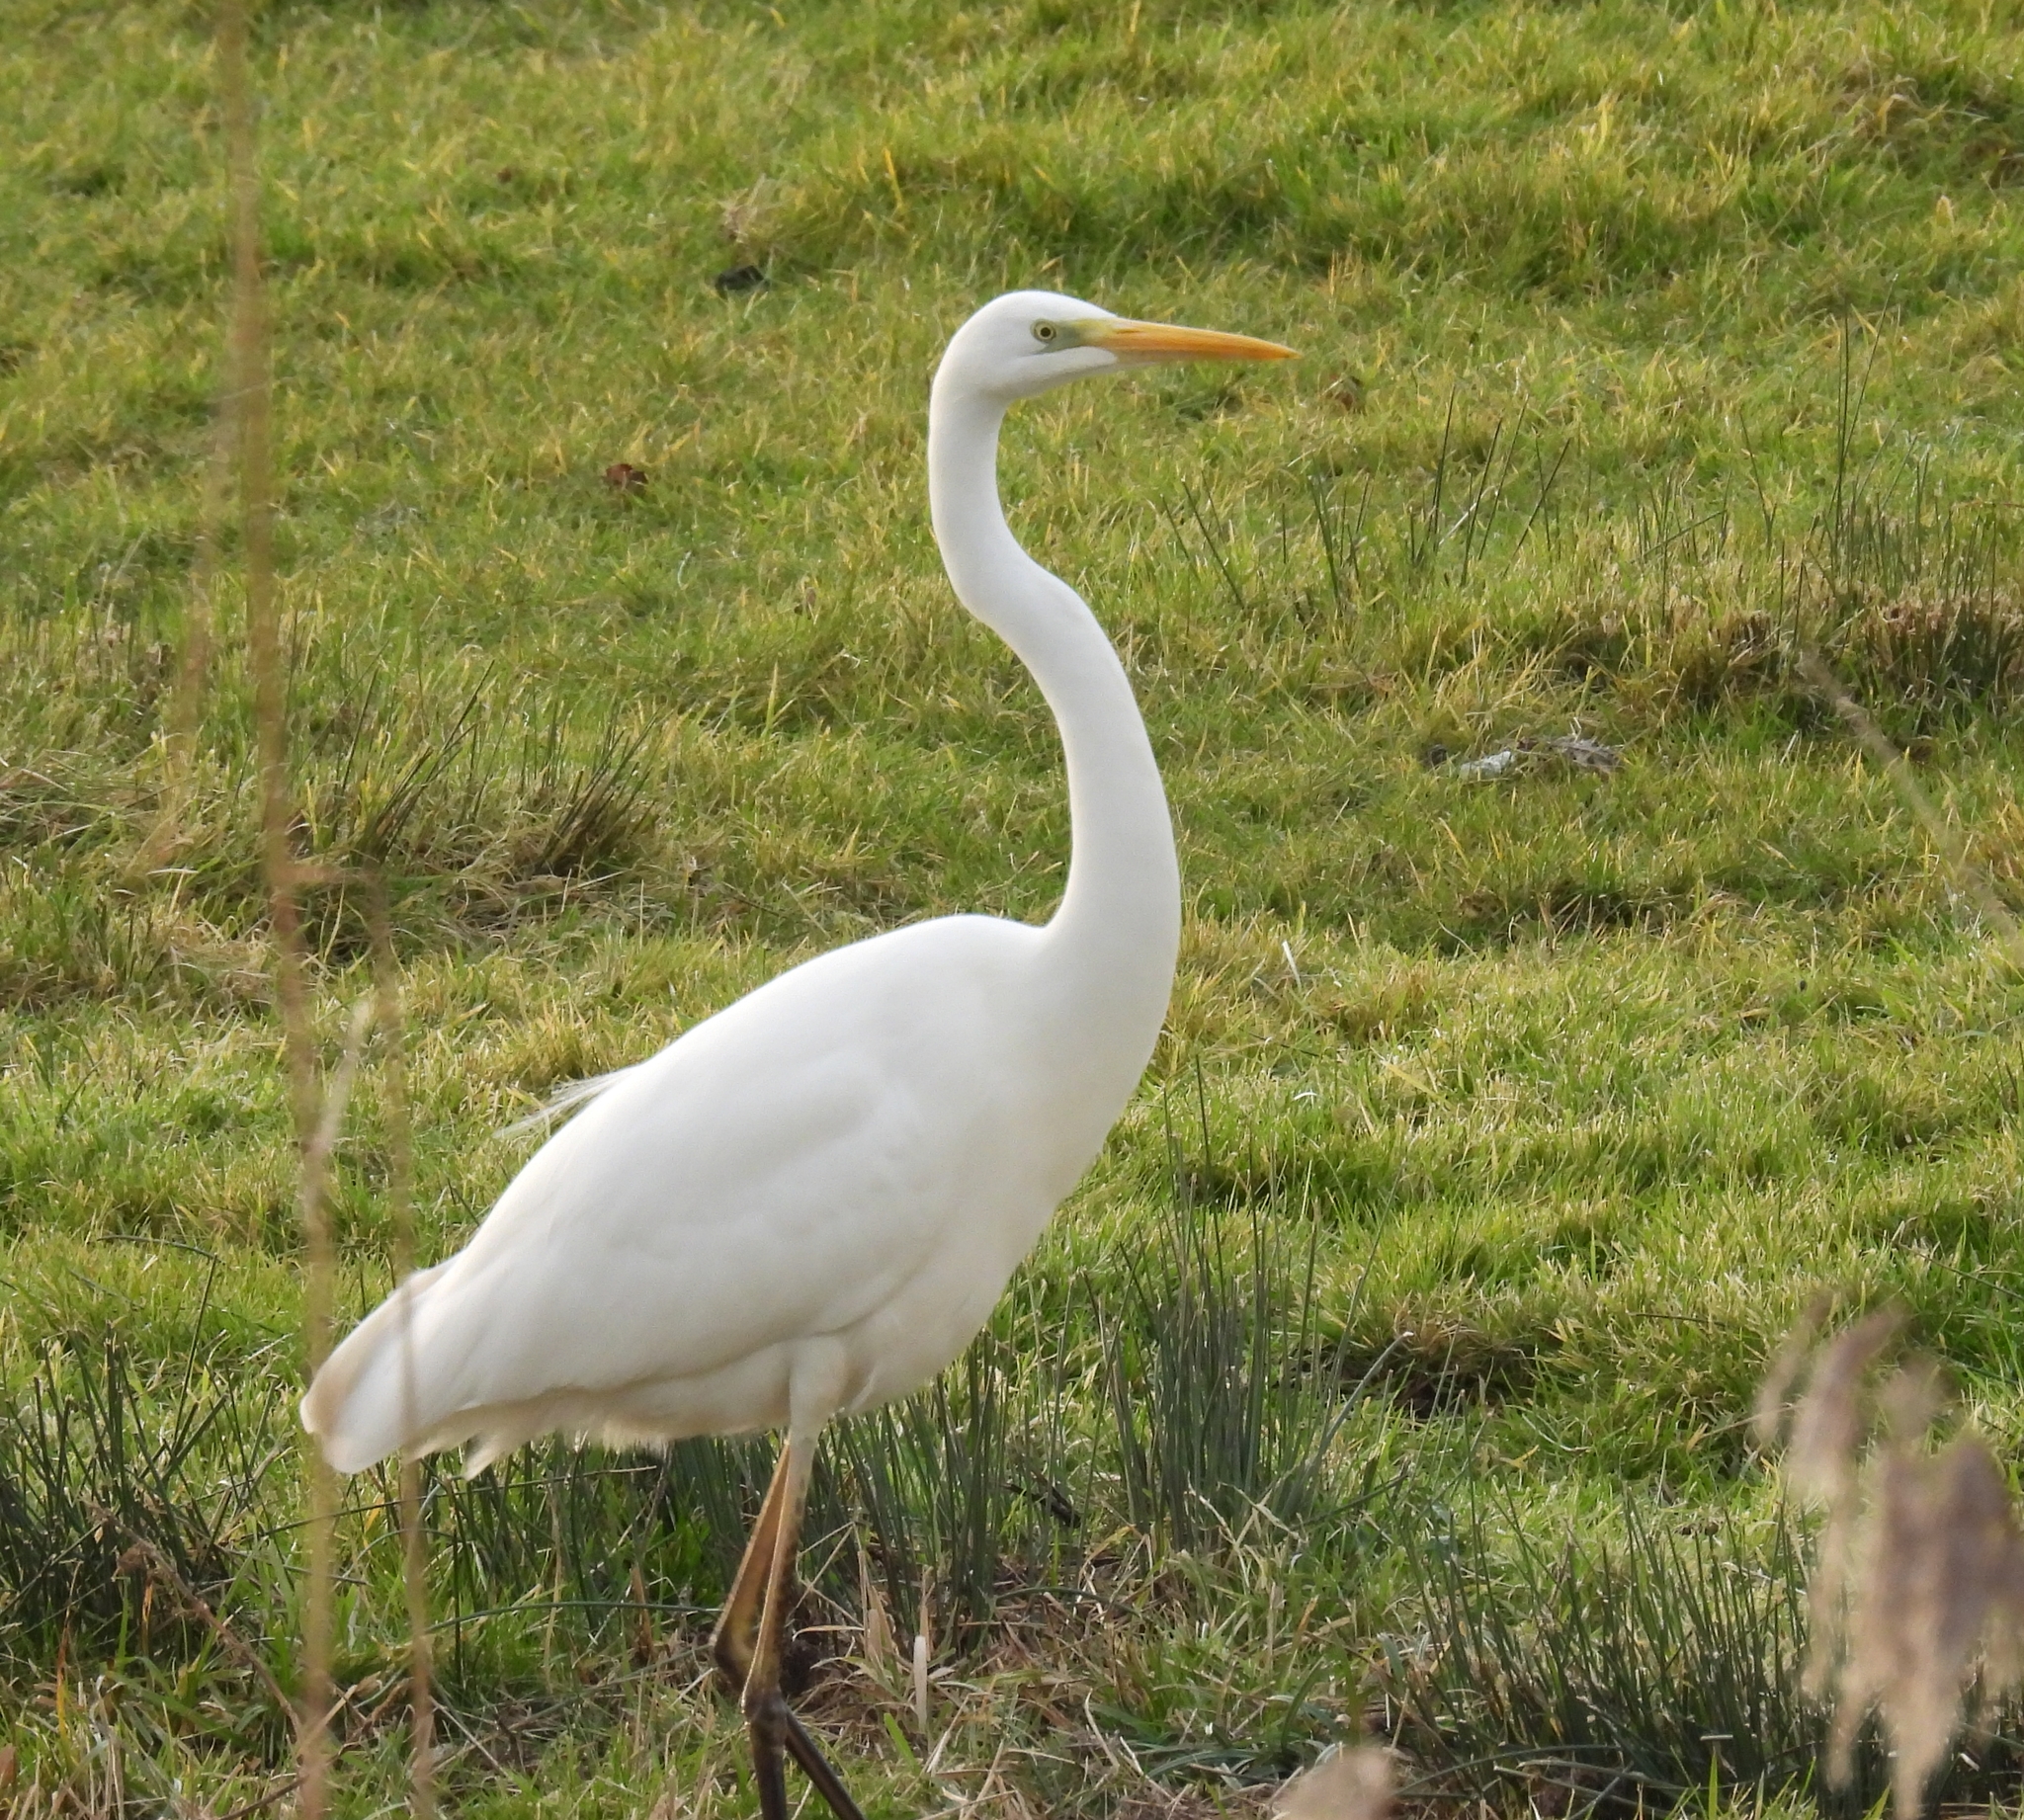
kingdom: Animalia
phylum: Chordata
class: Aves
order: Pelecaniformes
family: Ardeidae
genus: Ardea
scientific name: Ardea alba
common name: Great egret
